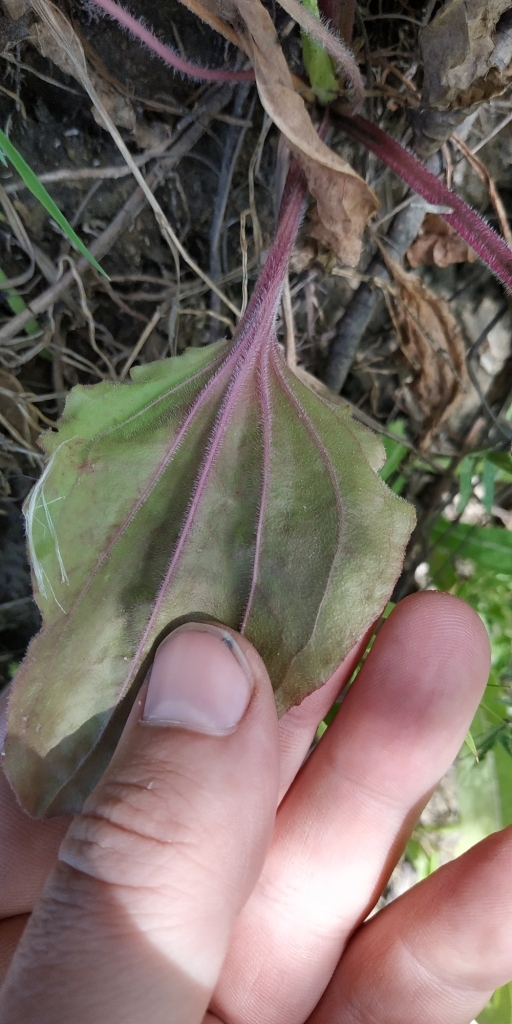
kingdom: Plantae
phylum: Tracheophyta
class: Magnoliopsida
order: Lamiales
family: Plantaginaceae
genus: Plantago
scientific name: Plantago uliginosa
